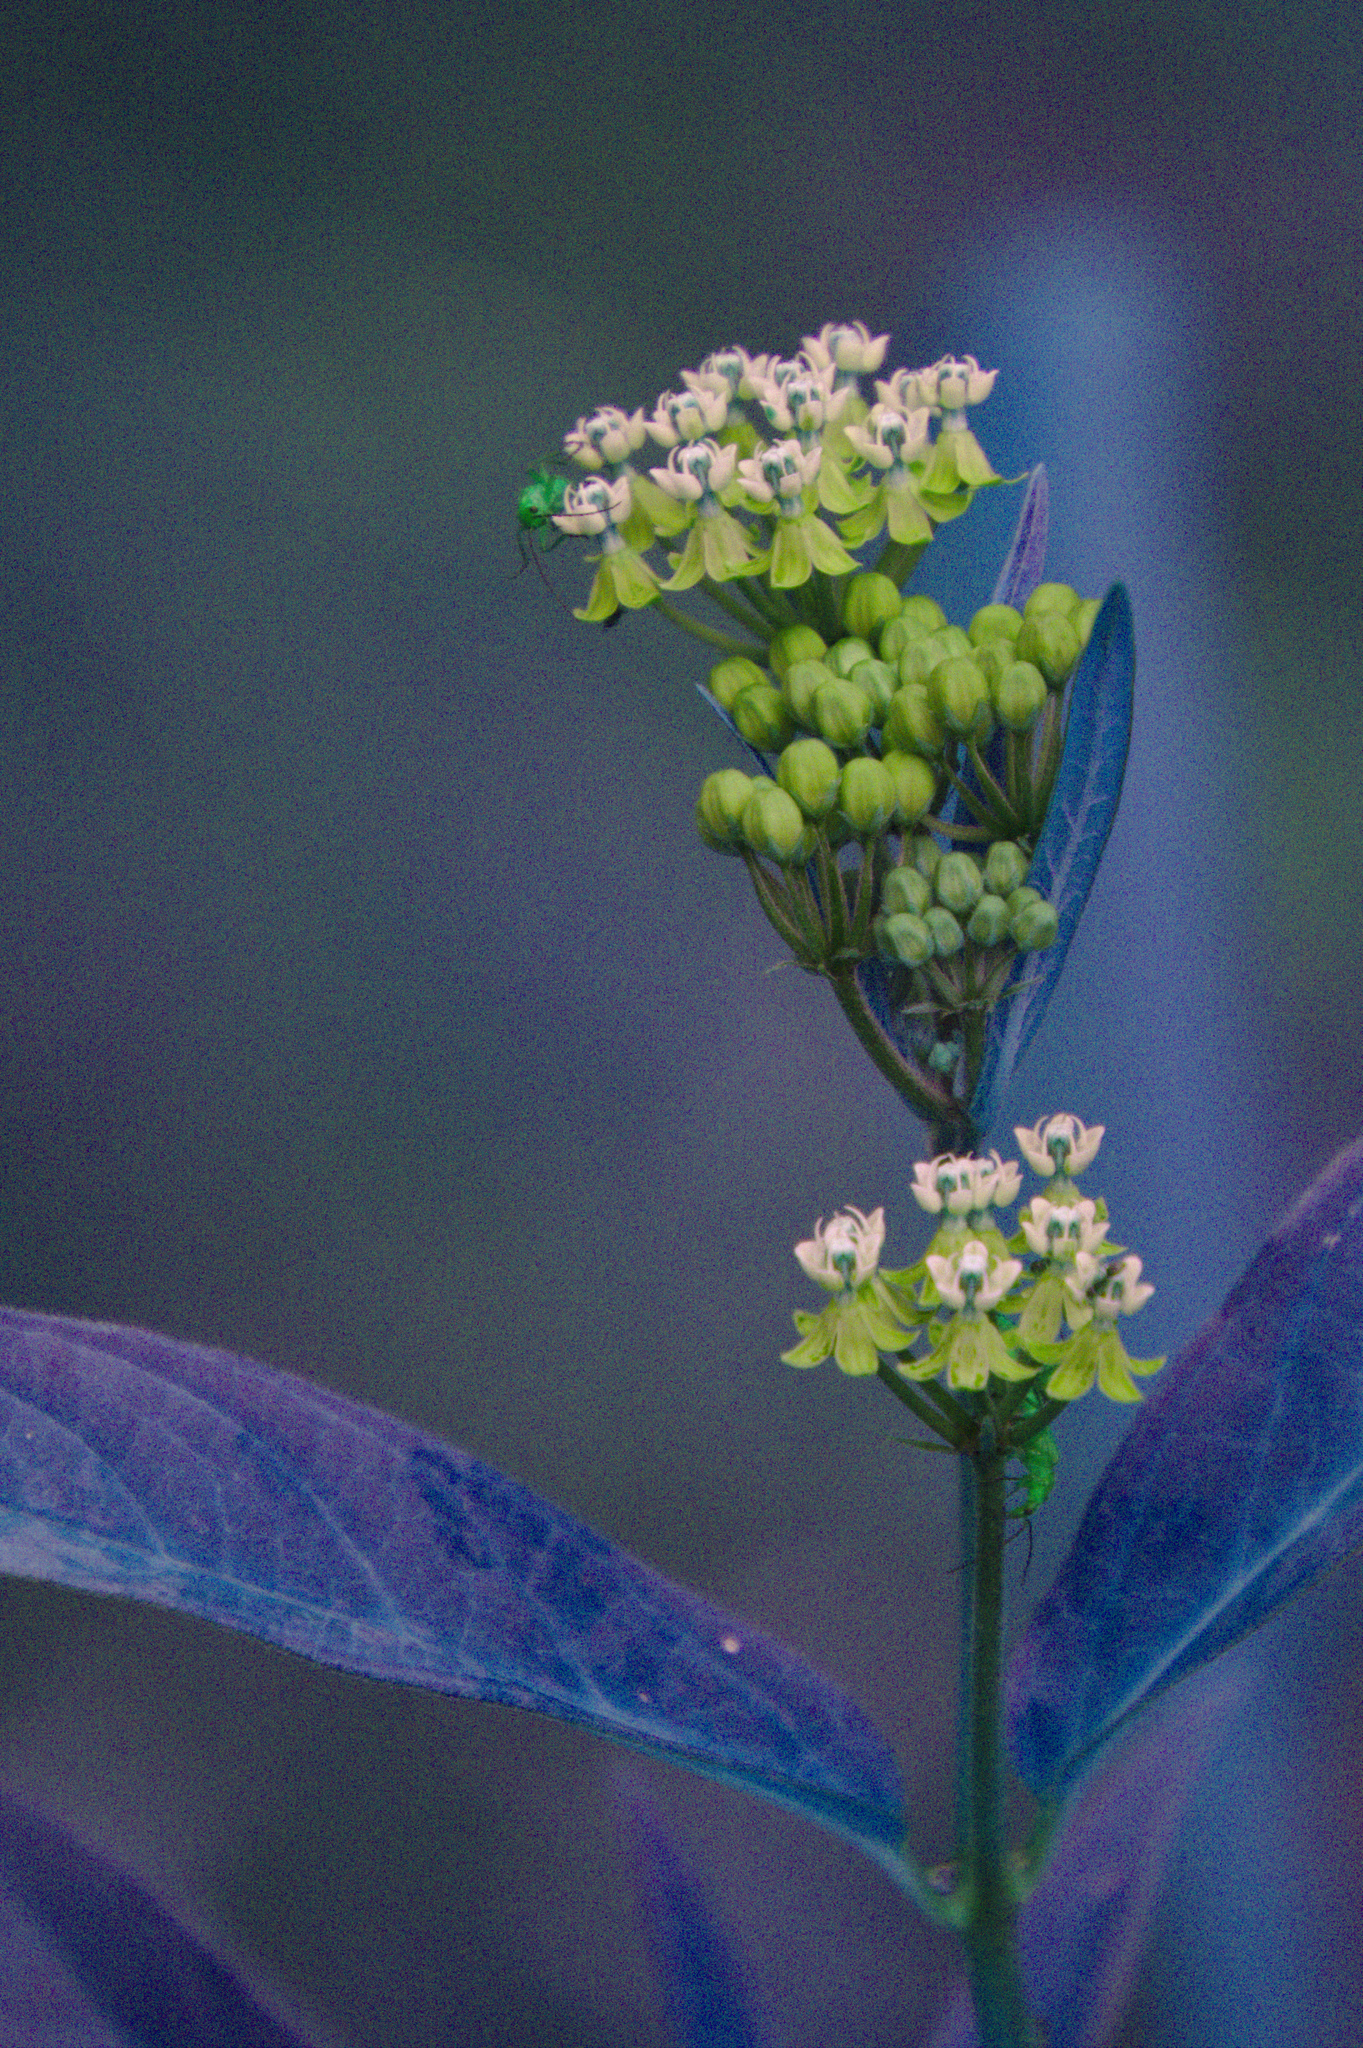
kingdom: Plantae
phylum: Tracheophyta
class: Magnoliopsida
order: Gentianales
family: Apocynaceae
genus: Asclepias
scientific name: Asclepias incarnata
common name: Swamp milkweed
